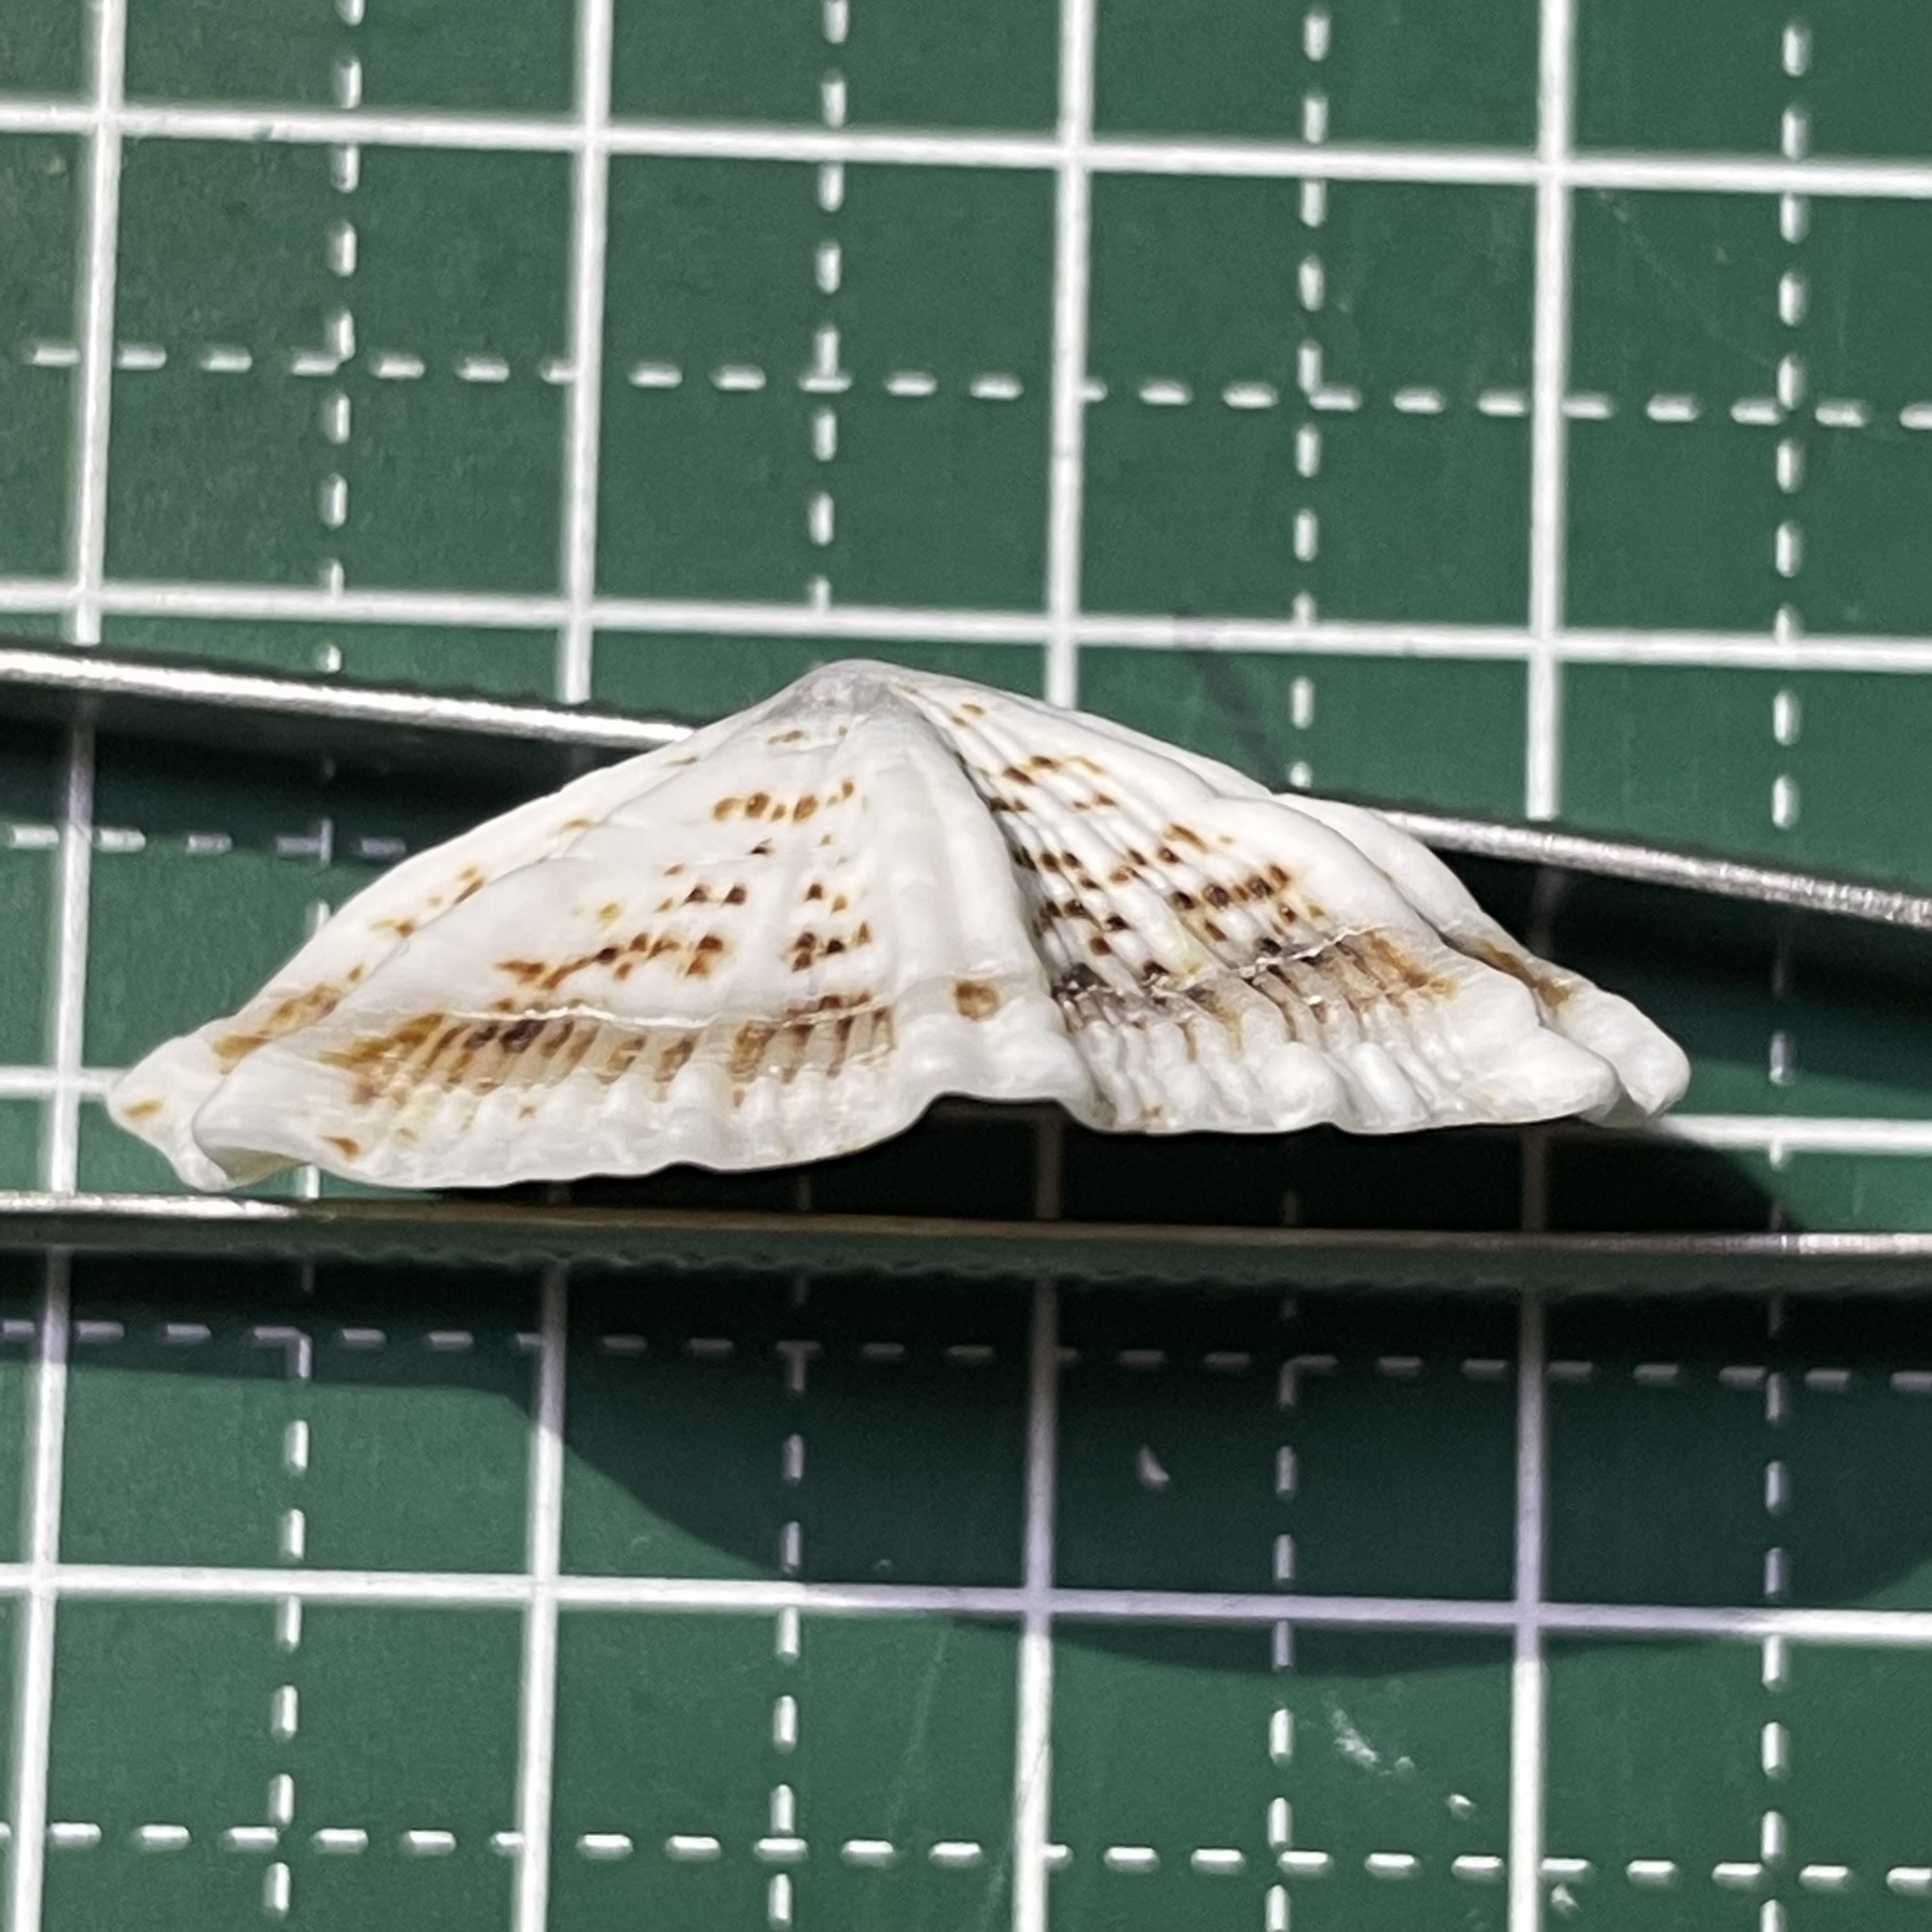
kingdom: Animalia
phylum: Mollusca
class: Gastropoda
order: Siphonariida
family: Siphonariidae
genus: Siphonaria
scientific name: Siphonaria laciniosa
